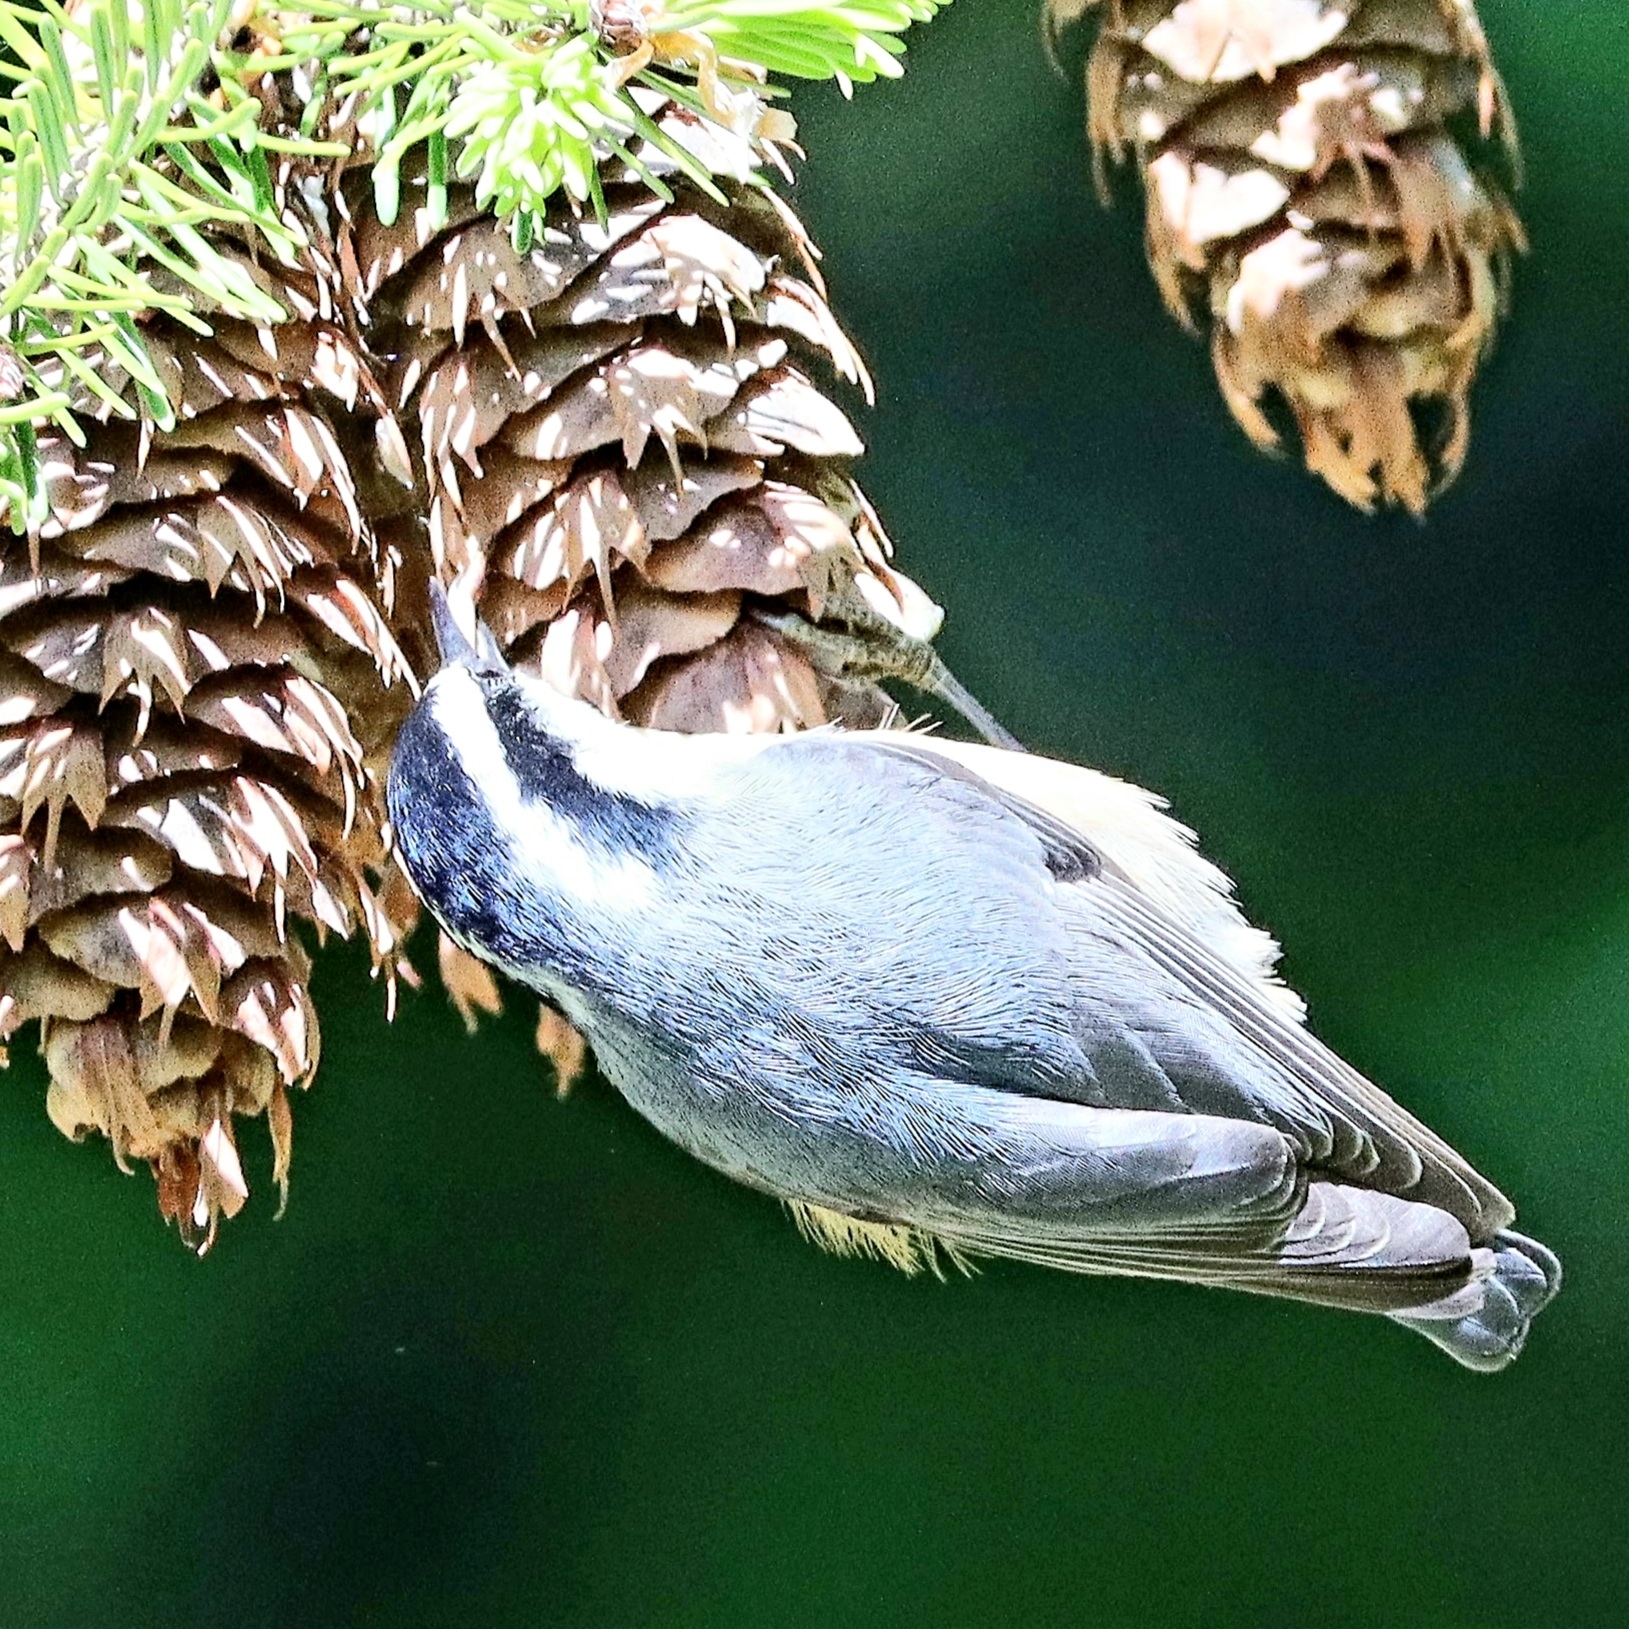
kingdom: Animalia
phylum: Chordata
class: Aves
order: Passeriformes
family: Sittidae
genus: Sitta
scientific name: Sitta canadensis
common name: Red-breasted nuthatch
